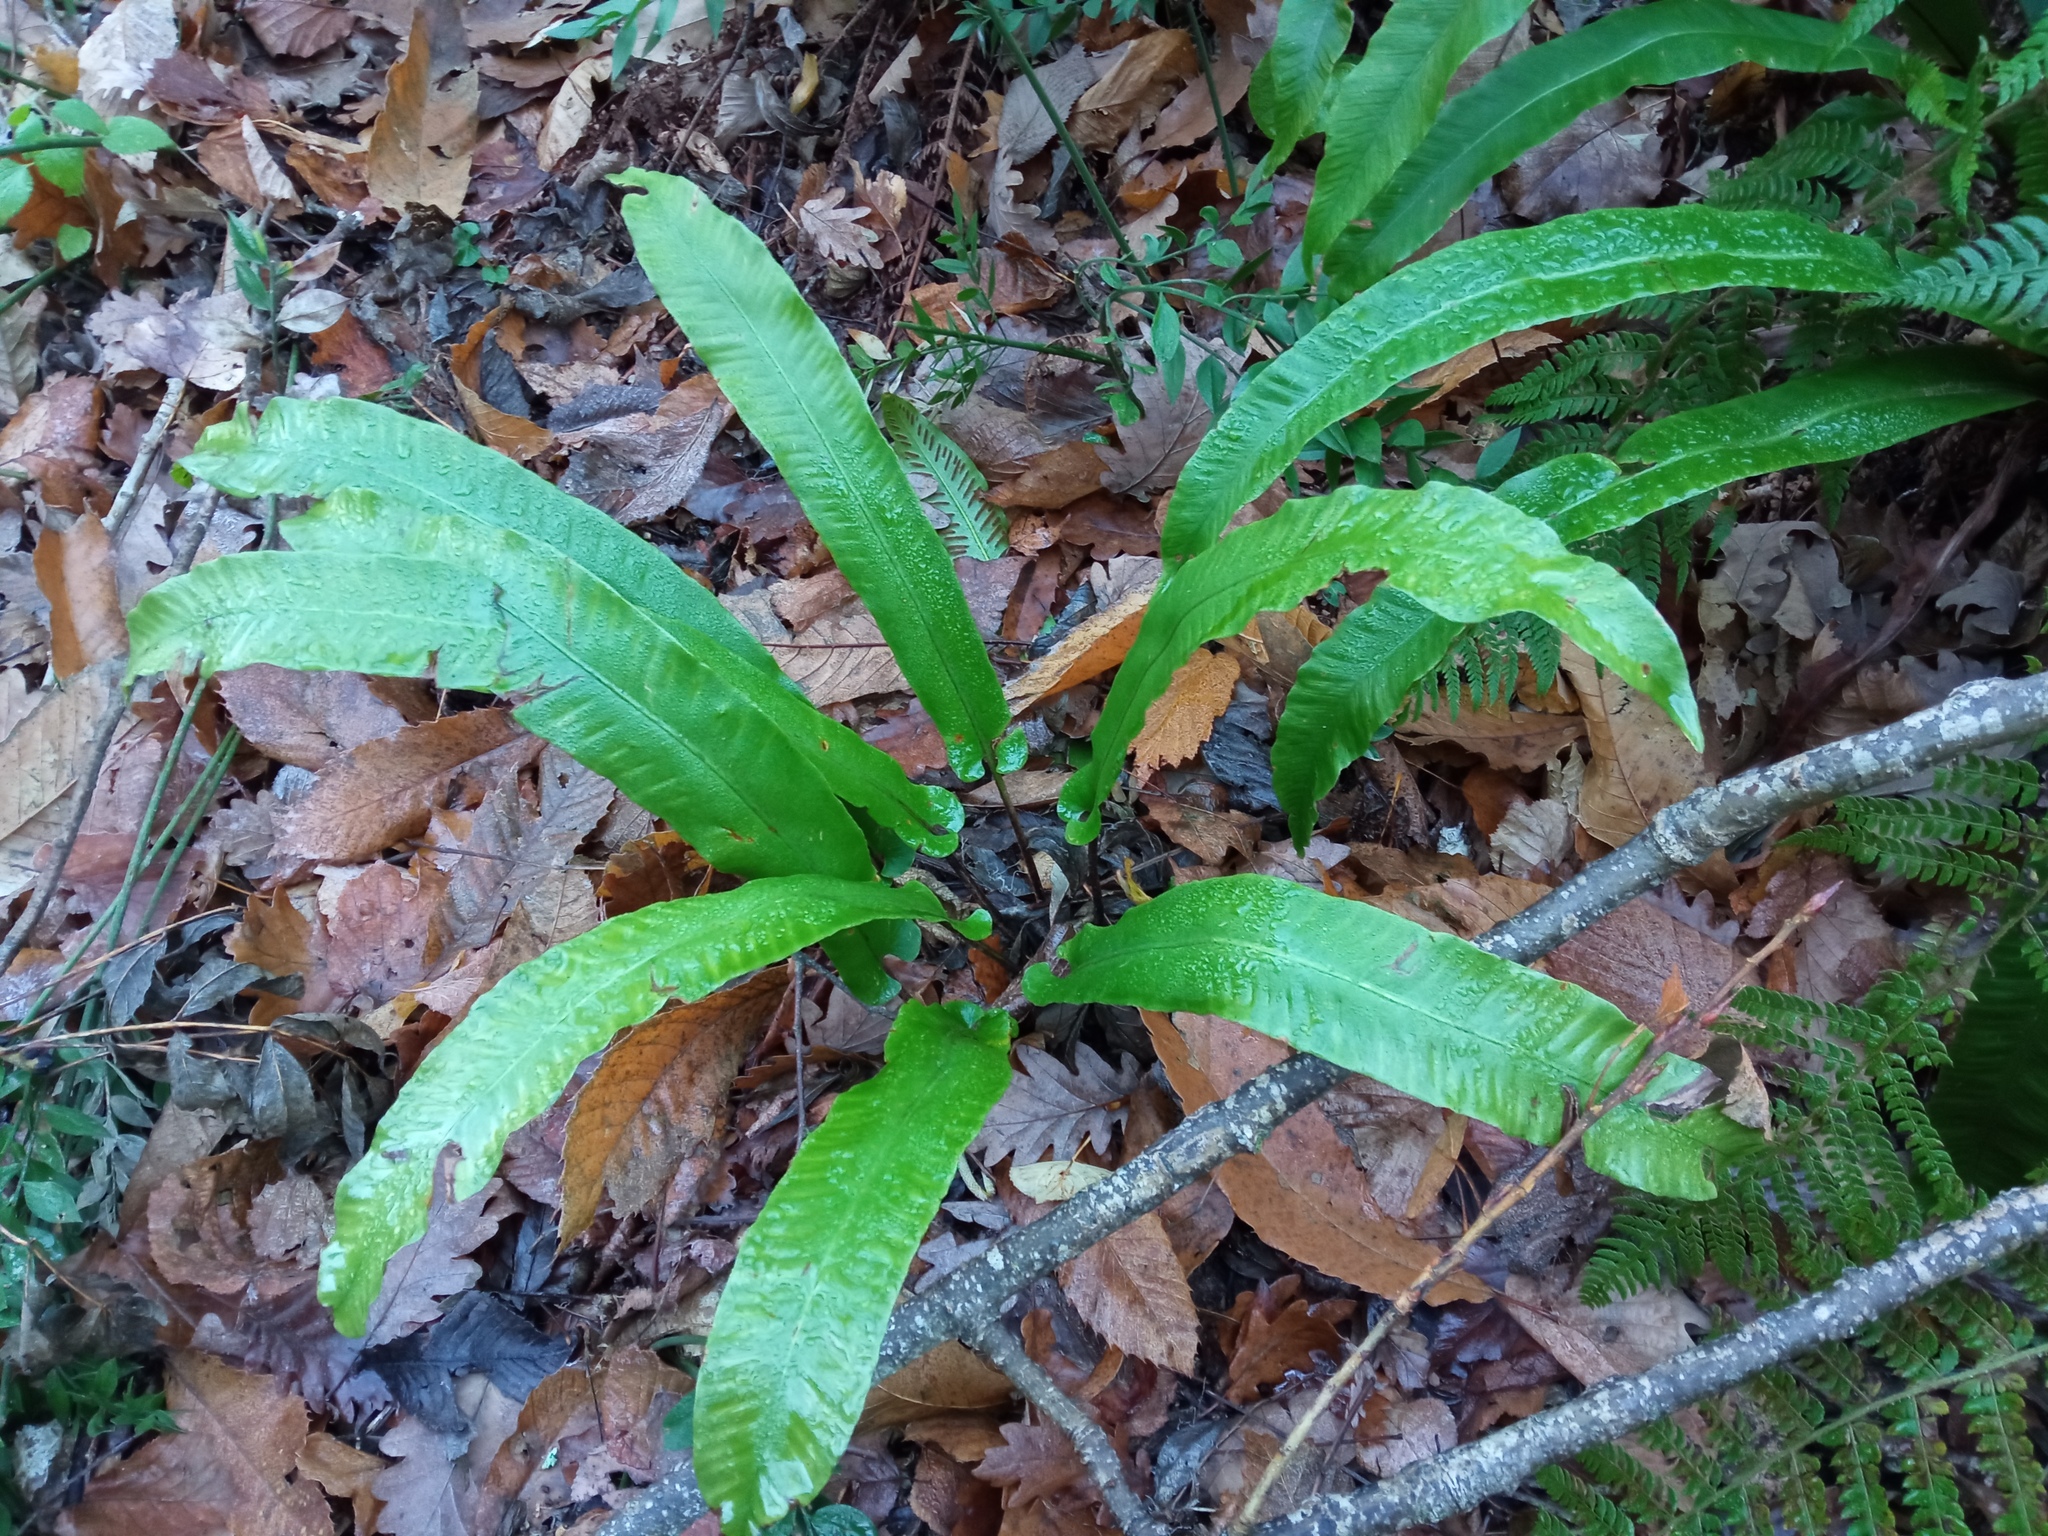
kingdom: Plantae
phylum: Tracheophyta
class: Polypodiopsida
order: Polypodiales
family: Aspleniaceae
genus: Asplenium
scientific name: Asplenium scolopendrium
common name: Hart's-tongue fern
